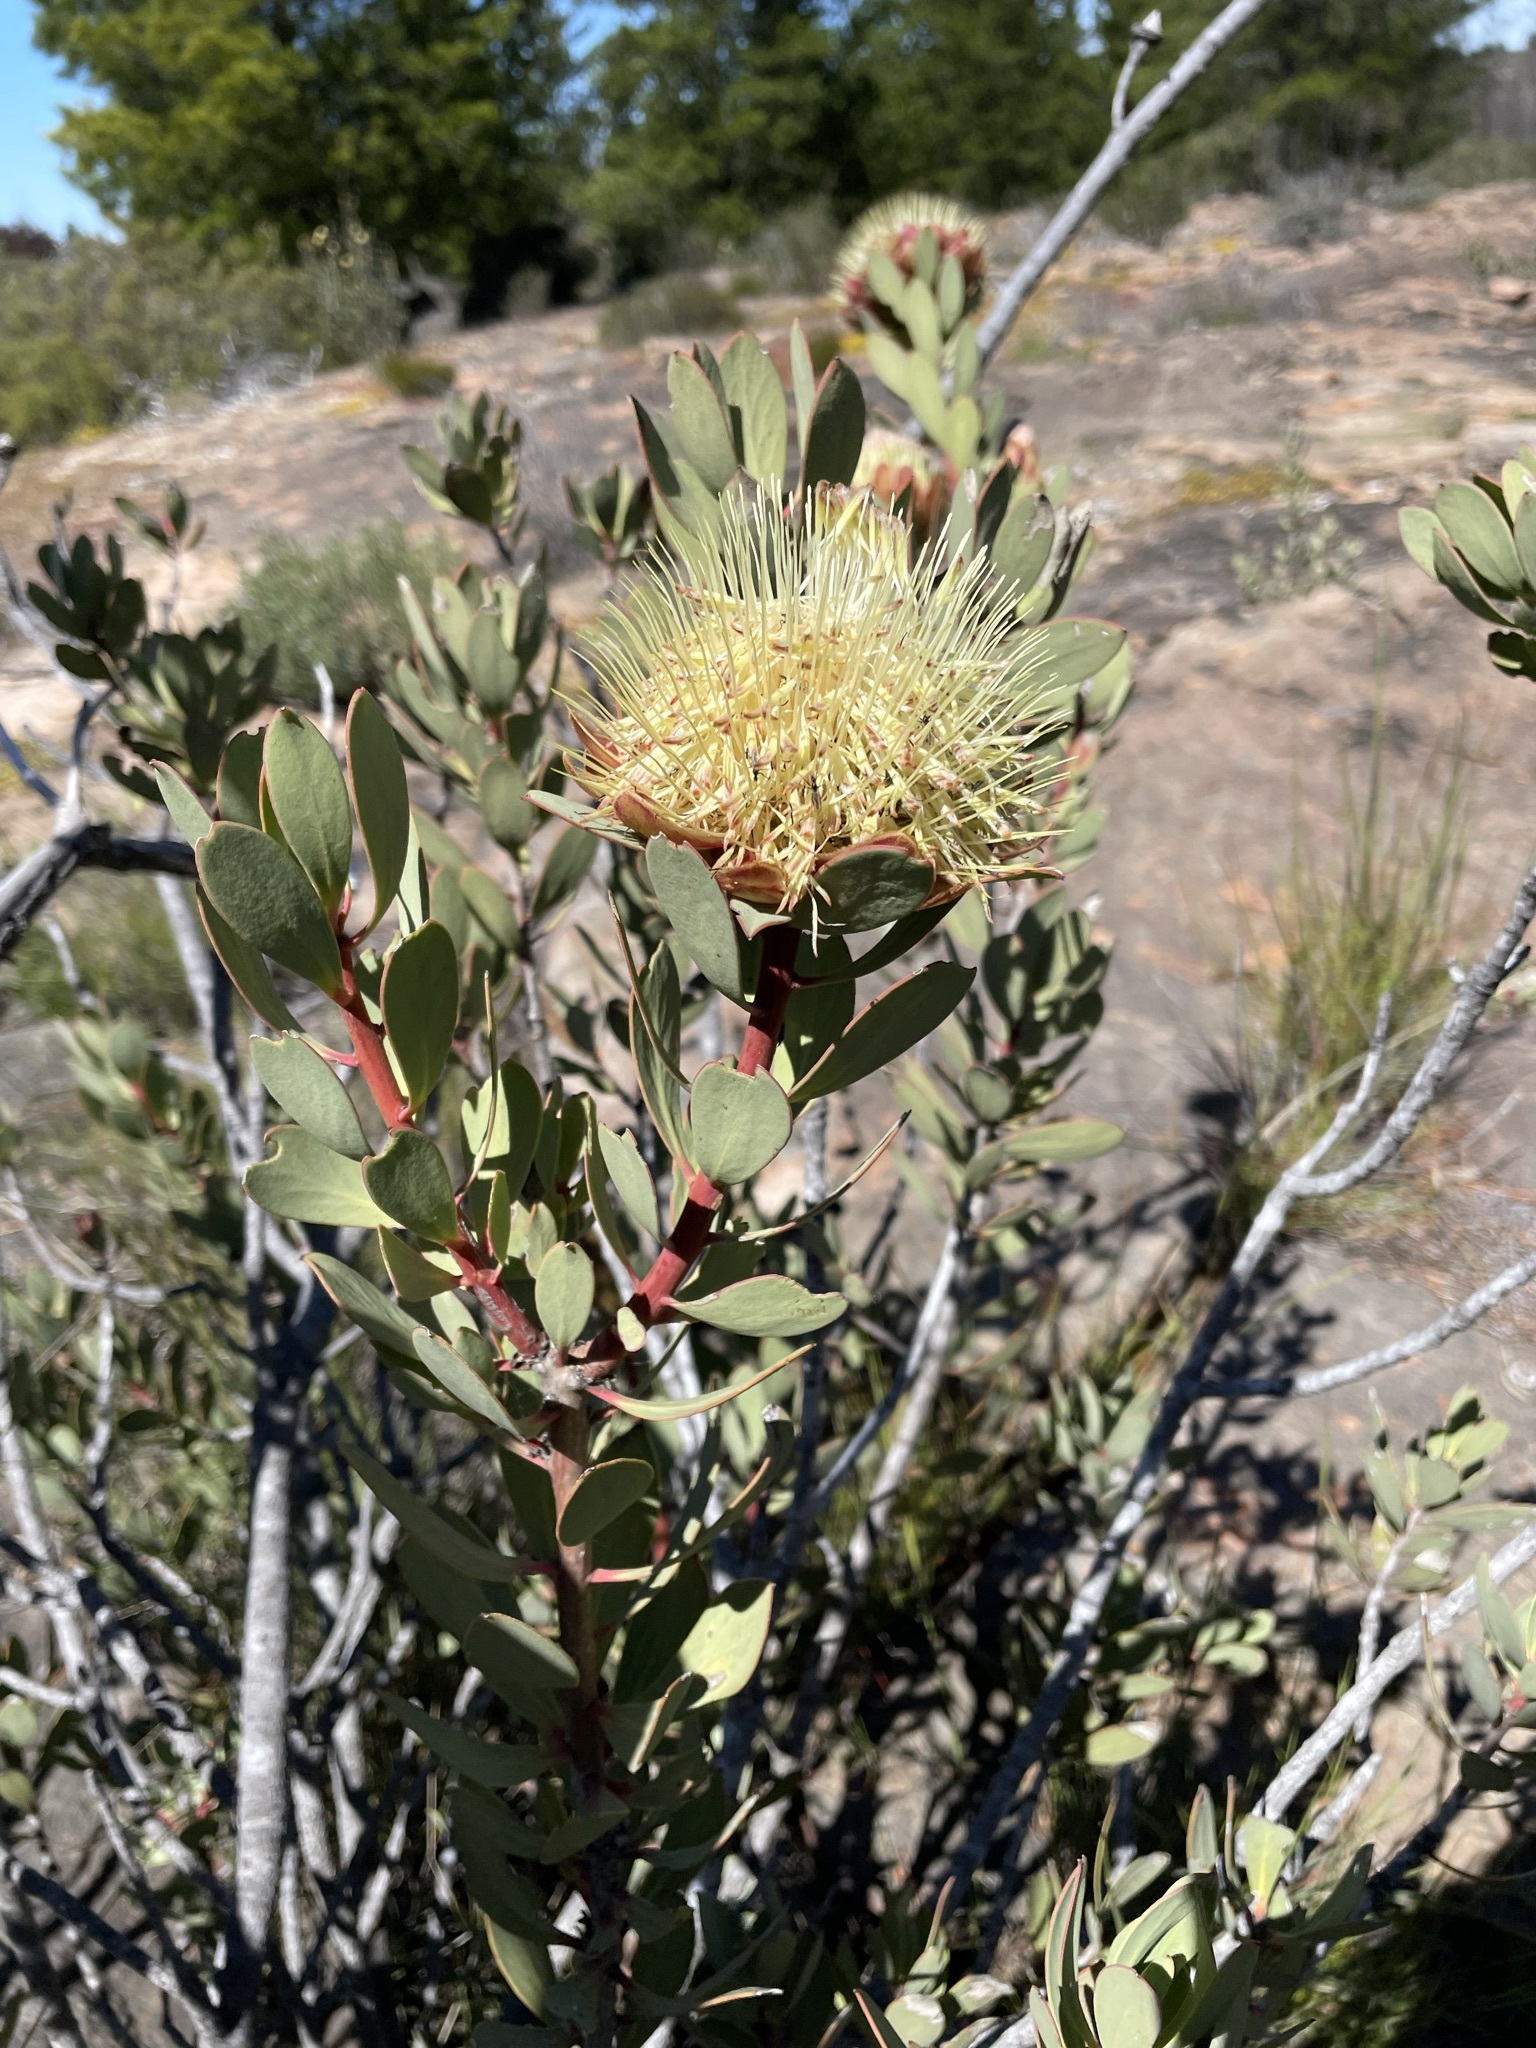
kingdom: Plantae
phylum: Tracheophyta
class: Magnoliopsida
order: Proteales
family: Proteaceae
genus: Protea
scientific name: Protea glabra
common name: Chestnut sugarbush
